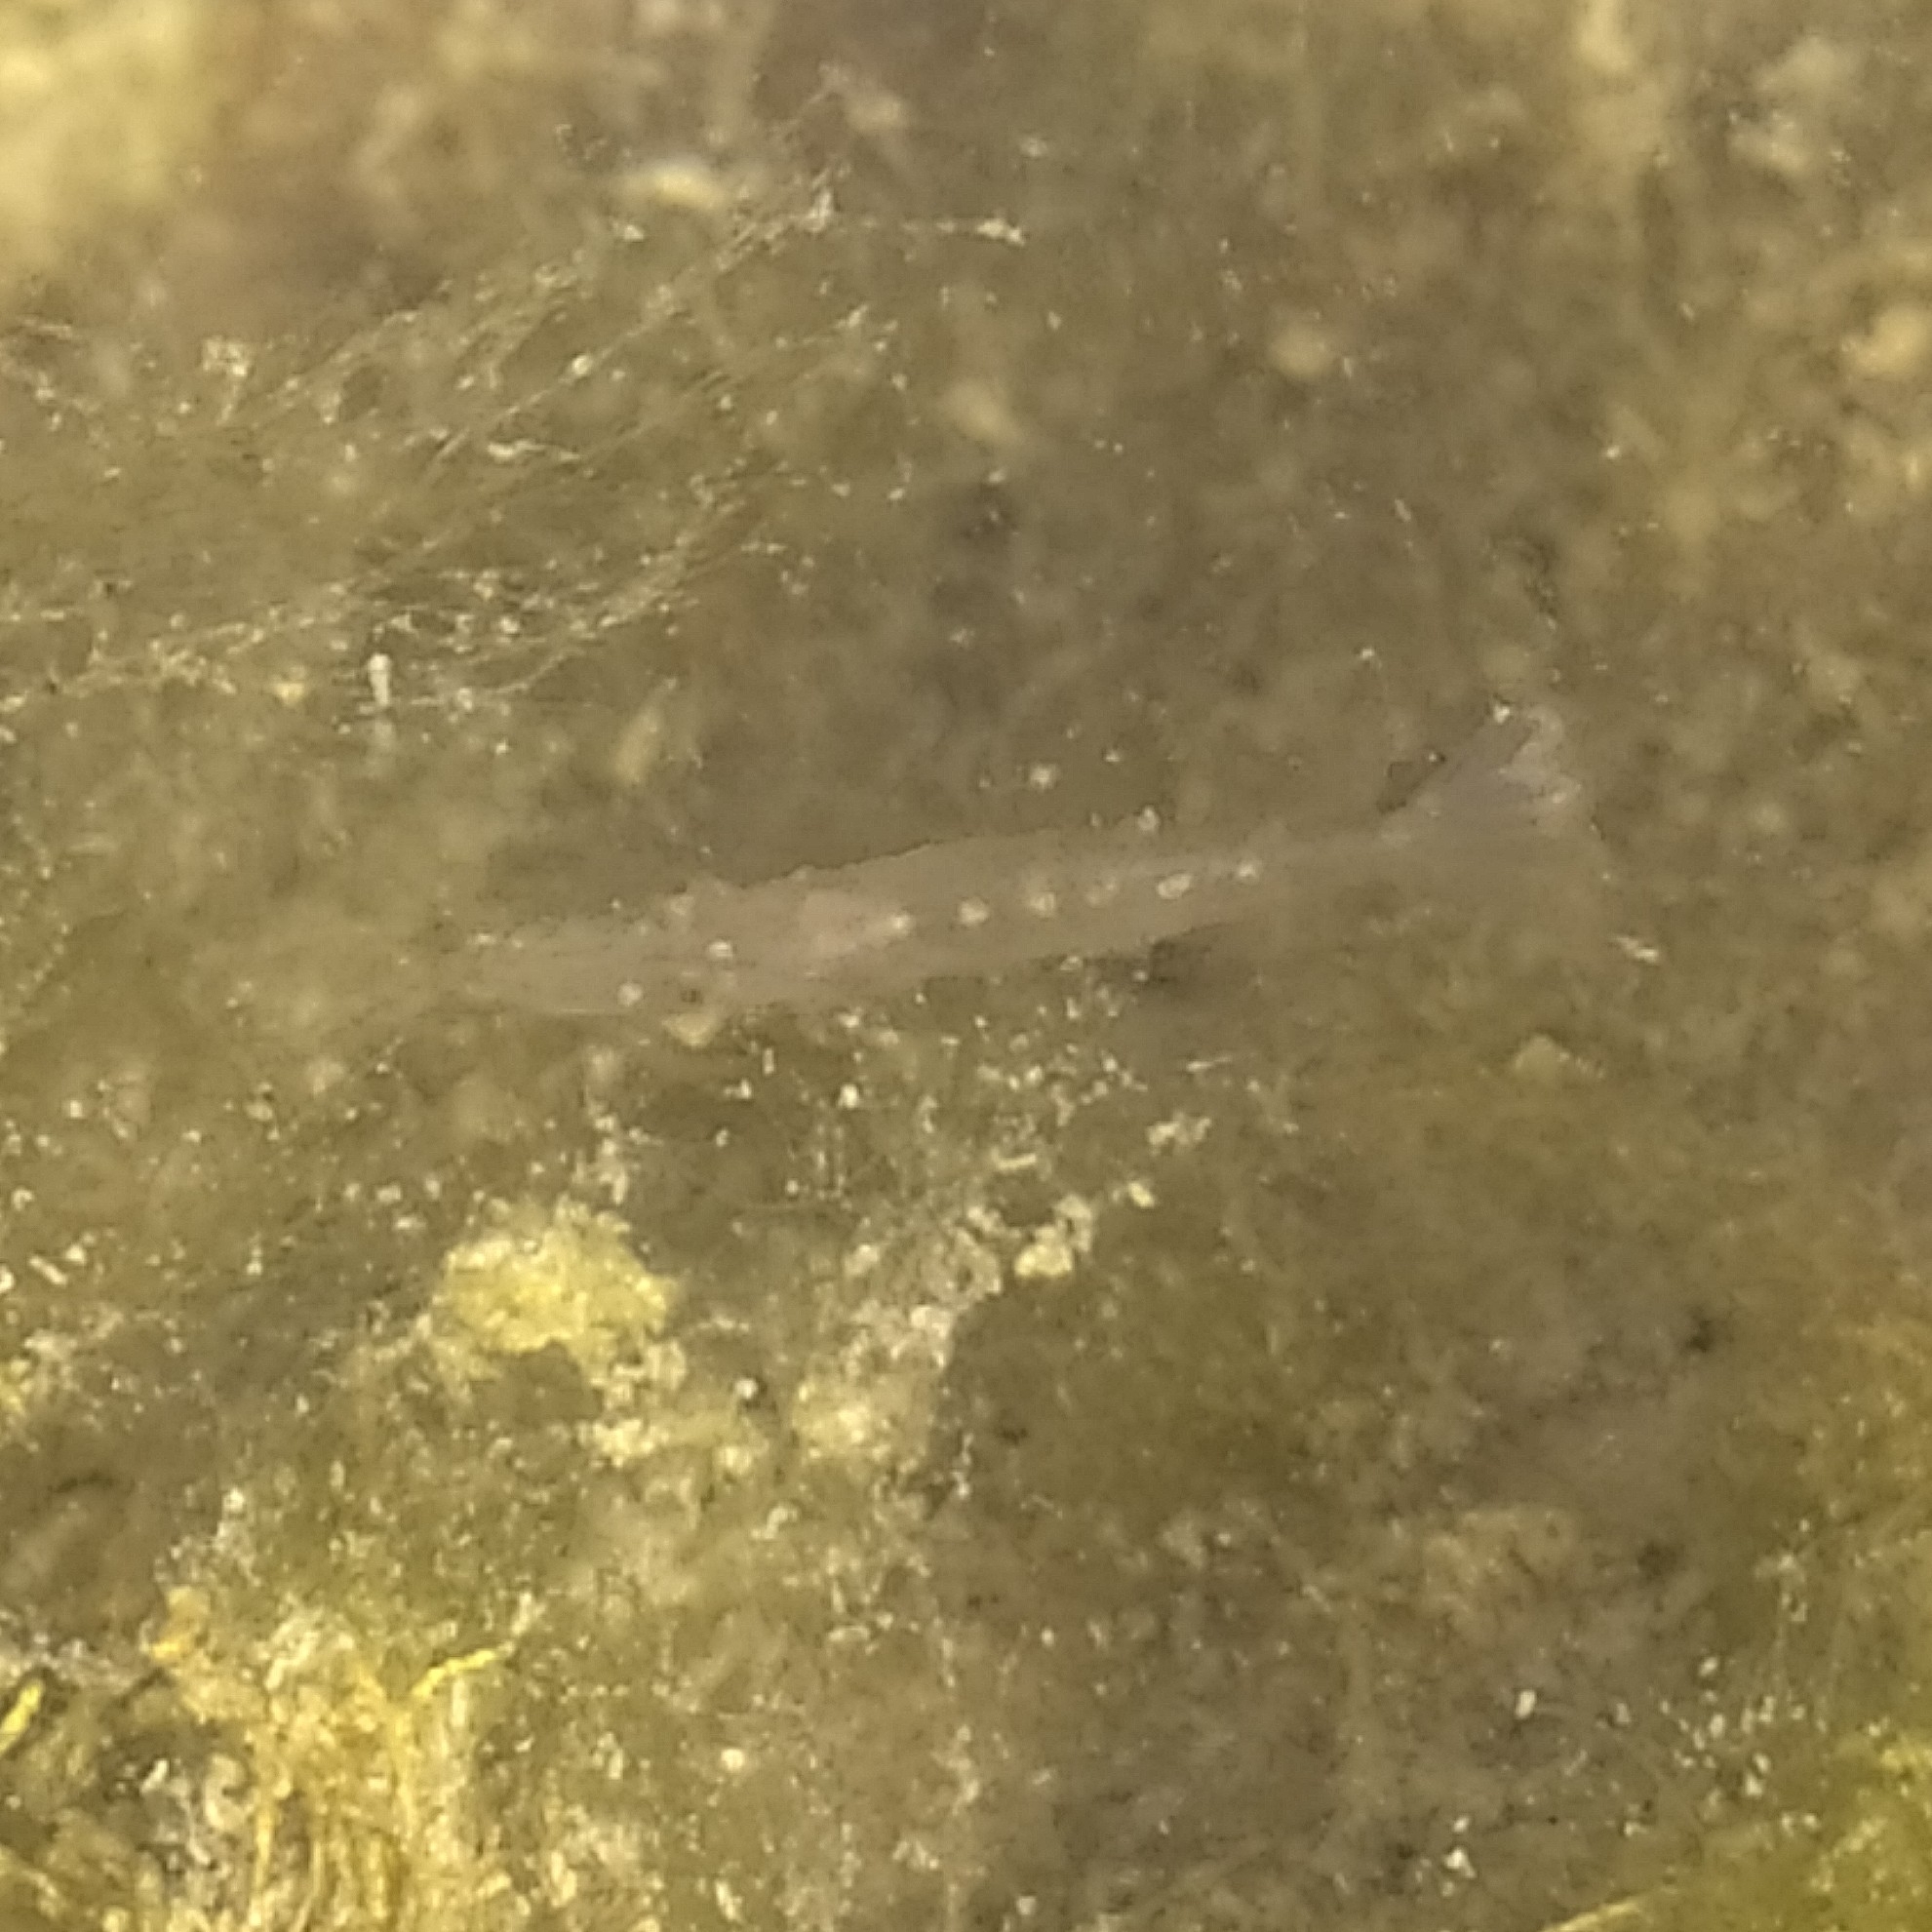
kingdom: Animalia
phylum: Arthropoda
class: Malacostraca
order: Decapoda
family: Atyidae
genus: Atyaephyra
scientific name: Atyaephyra desmarestii
